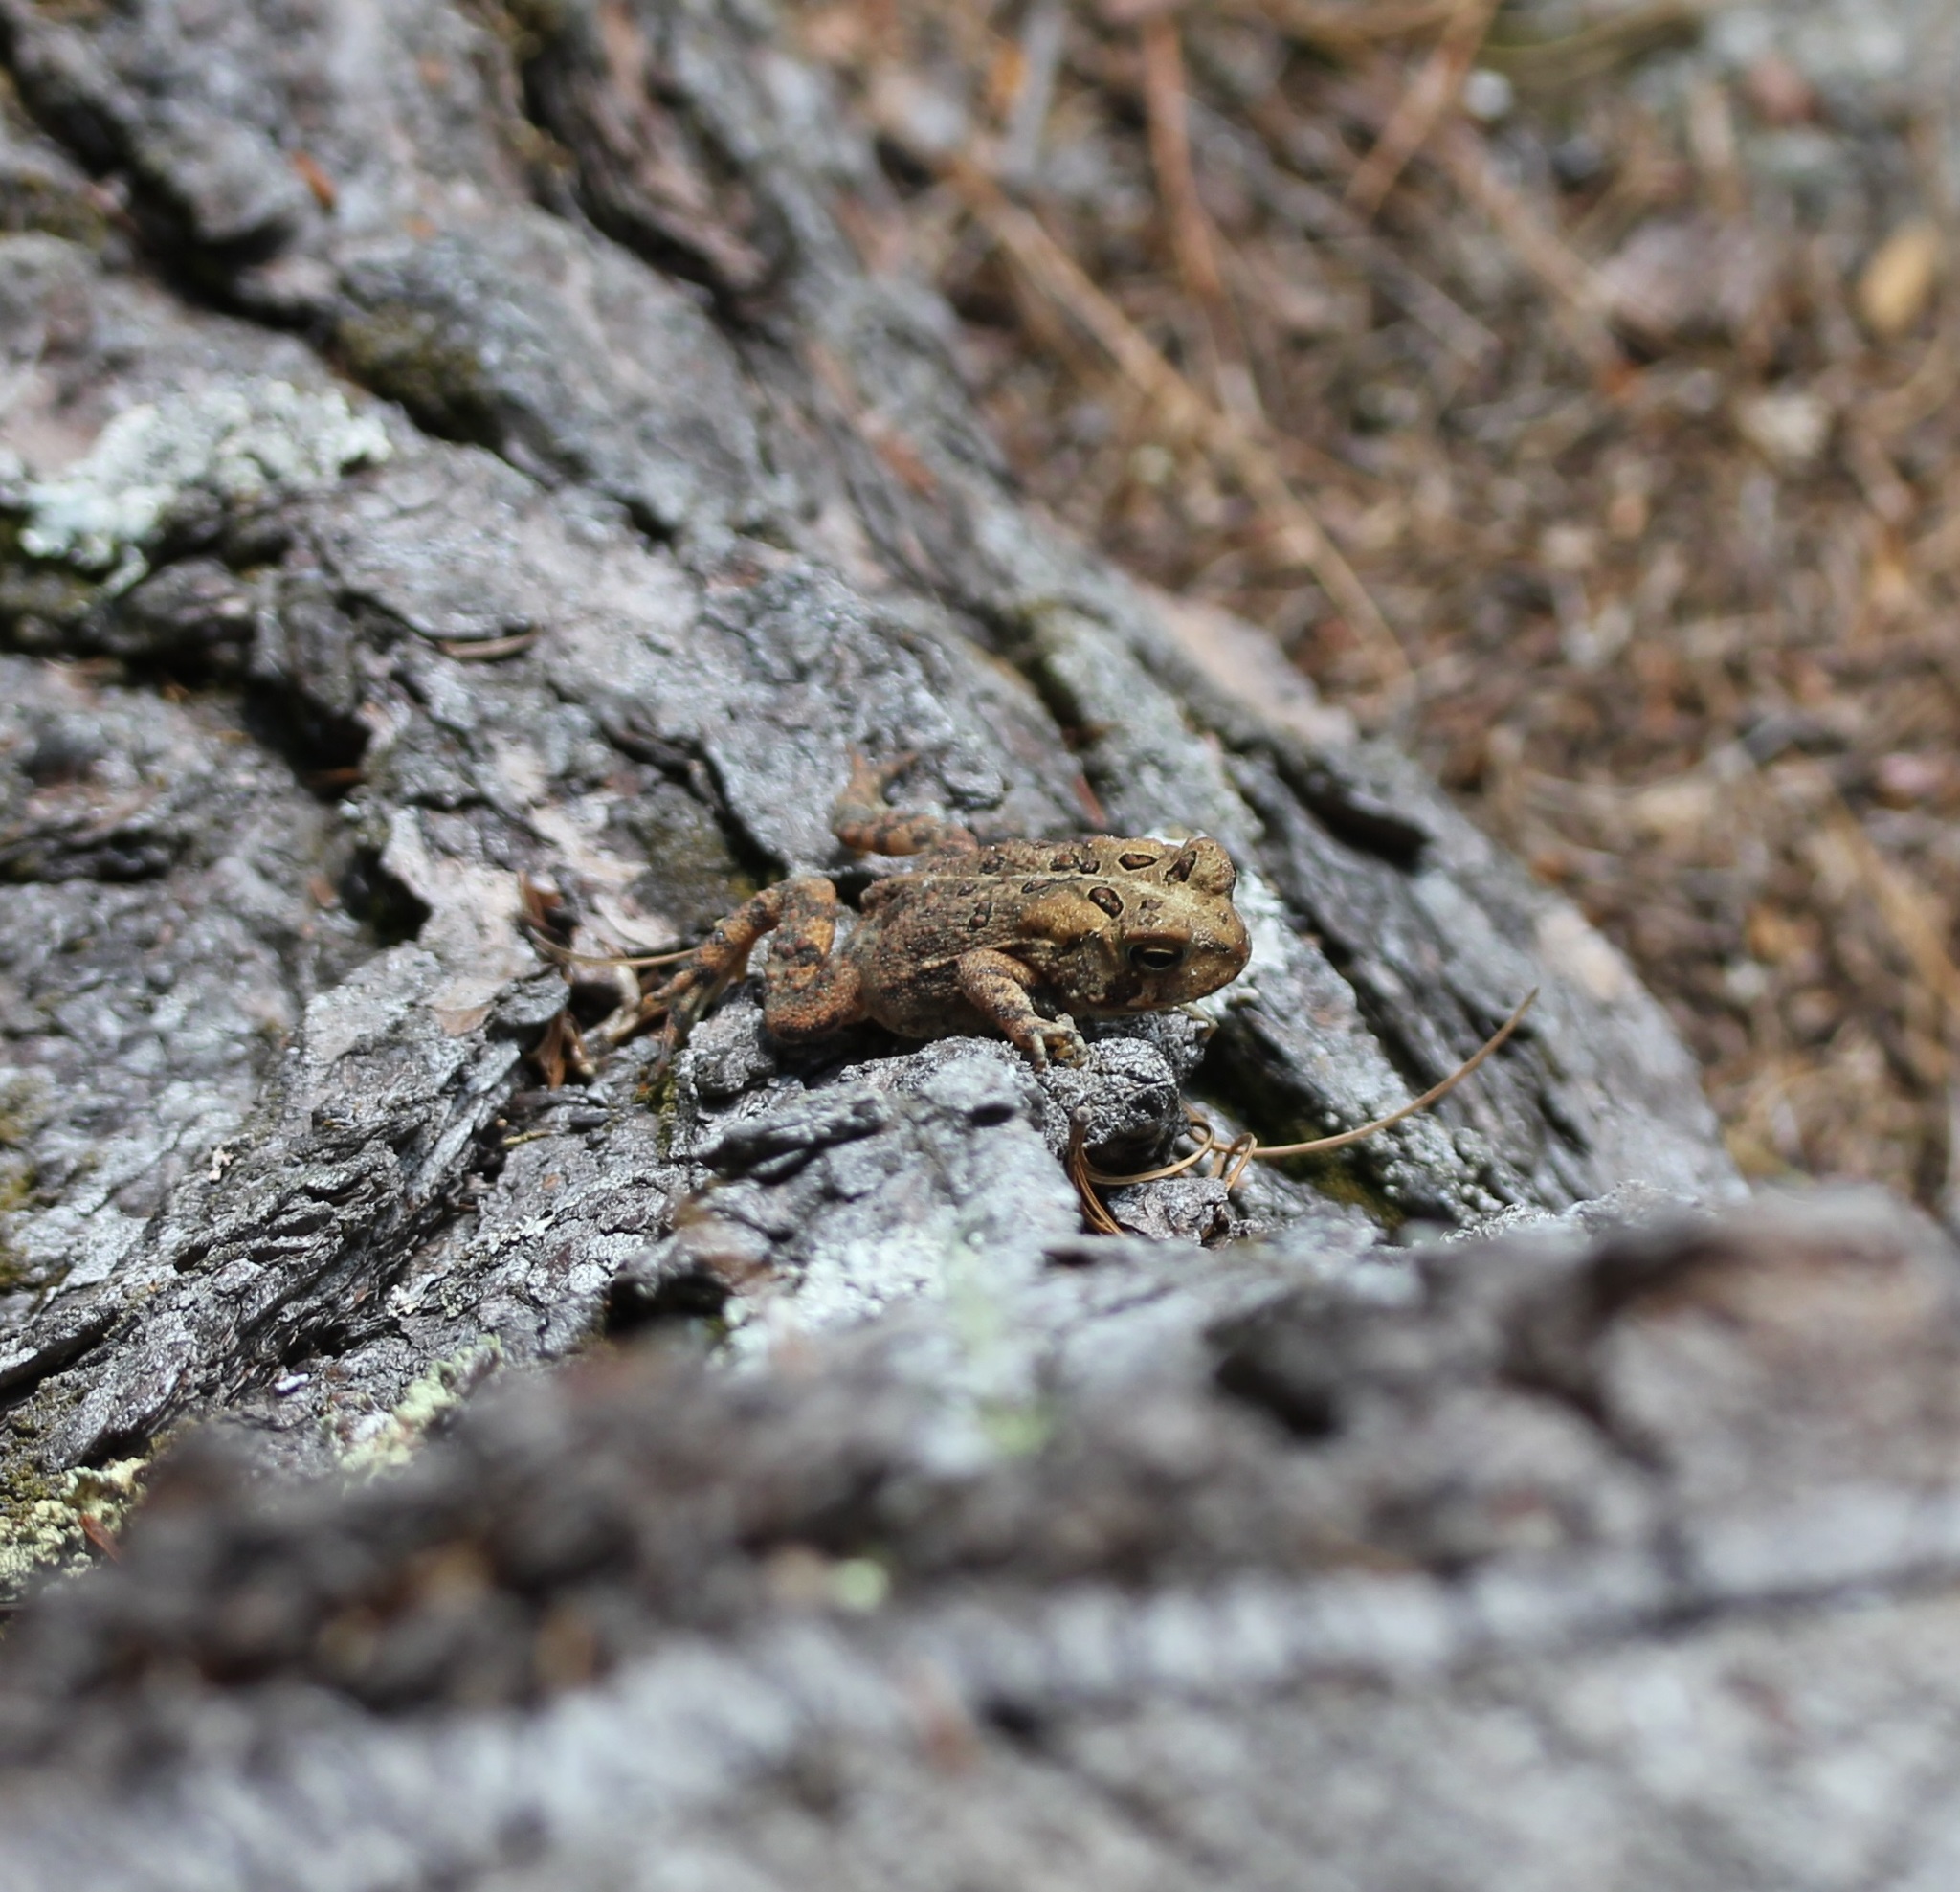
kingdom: Animalia
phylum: Chordata
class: Amphibia
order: Anura
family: Bufonidae
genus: Anaxyrus
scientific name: Anaxyrus americanus
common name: American toad
